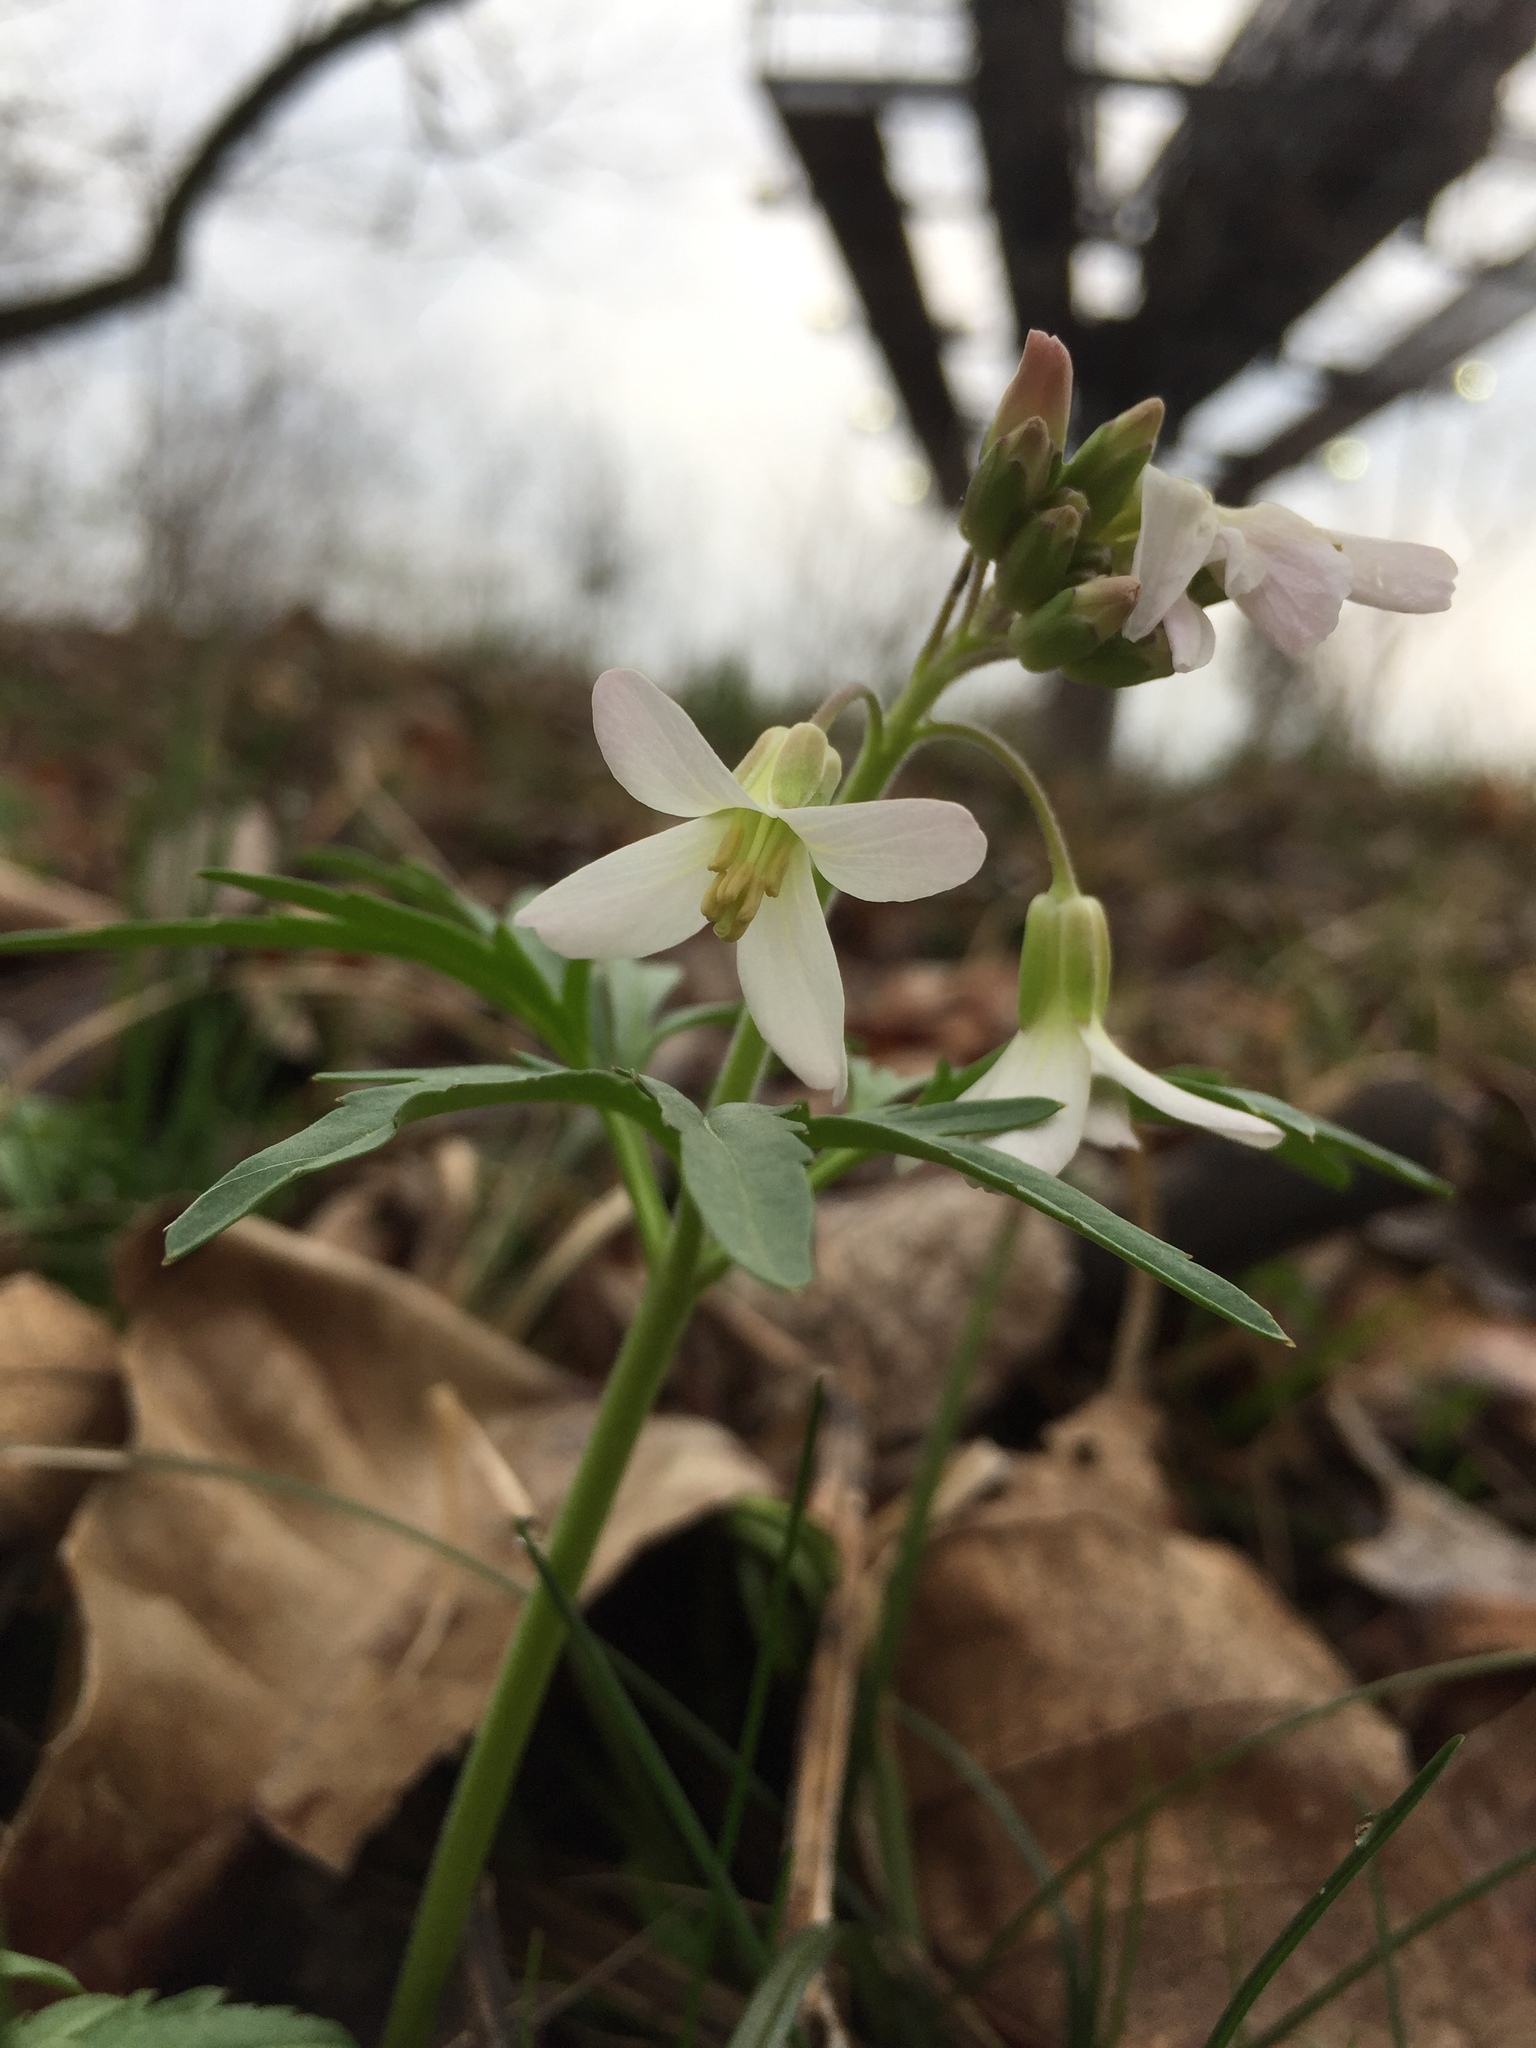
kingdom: Plantae
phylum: Tracheophyta
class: Magnoliopsida
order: Brassicales
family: Brassicaceae
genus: Cardamine
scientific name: Cardamine concatenata
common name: Cut-leaf toothcup
